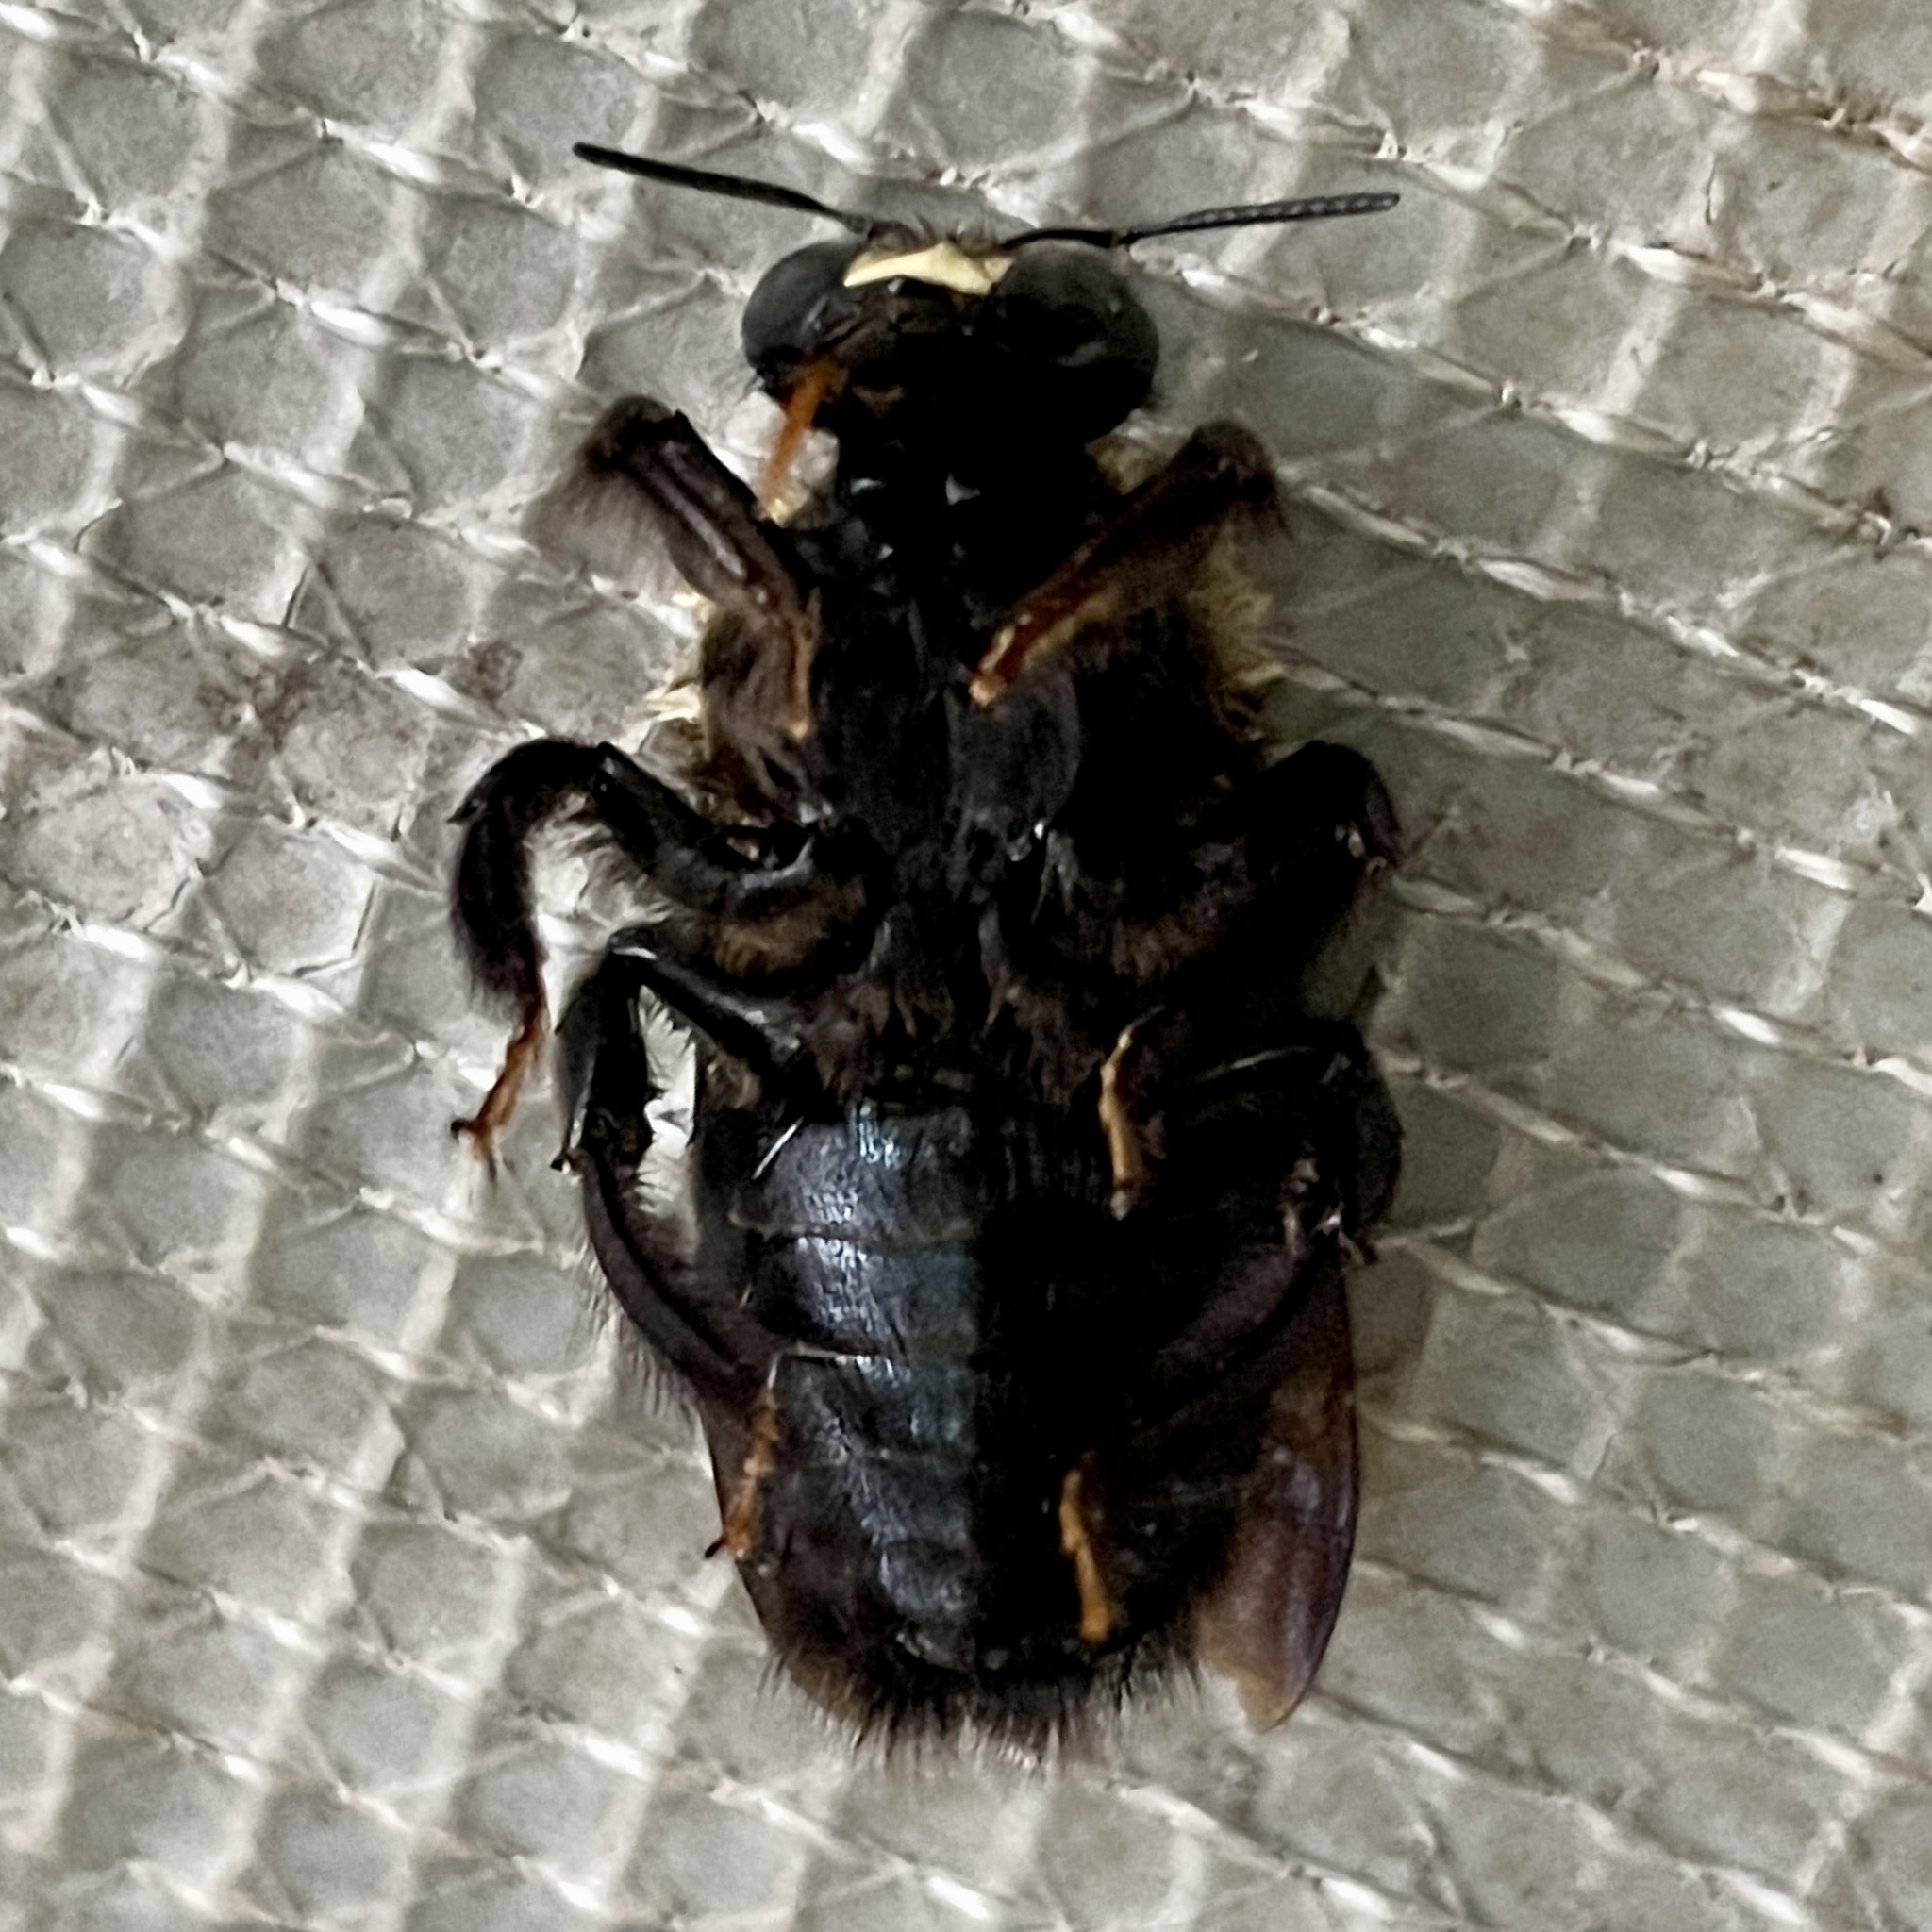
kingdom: Animalia
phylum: Arthropoda
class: Insecta
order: Hymenoptera
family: Apidae
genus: Xylocopa
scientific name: Xylocopa virginica
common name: Carpenter bee
